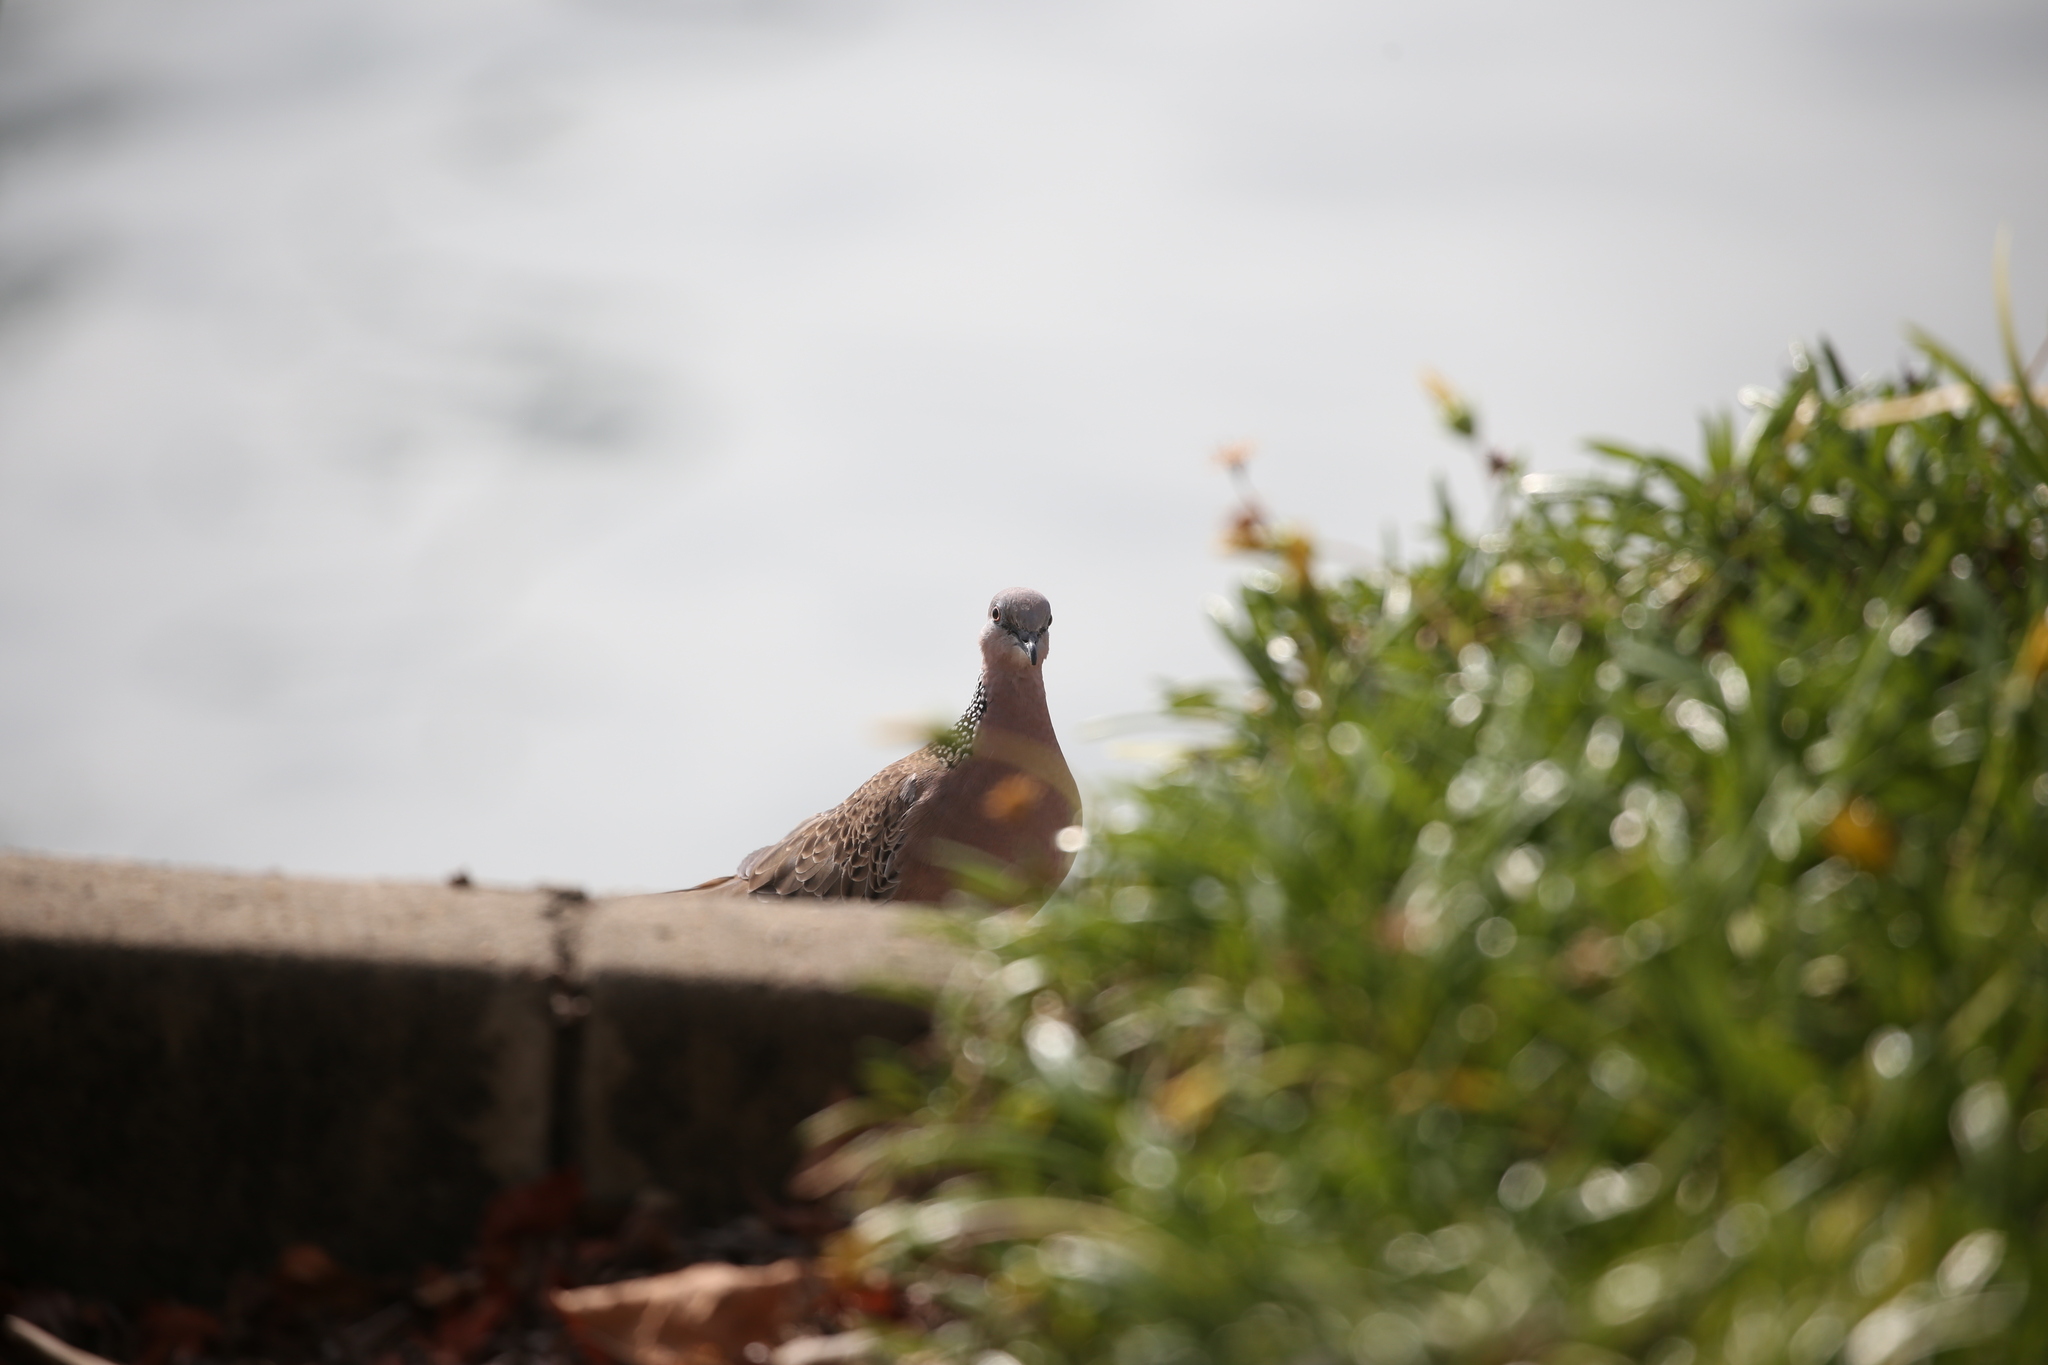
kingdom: Animalia
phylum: Chordata
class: Aves
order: Columbiformes
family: Columbidae
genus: Spilopelia
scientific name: Spilopelia chinensis
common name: Spotted dove
